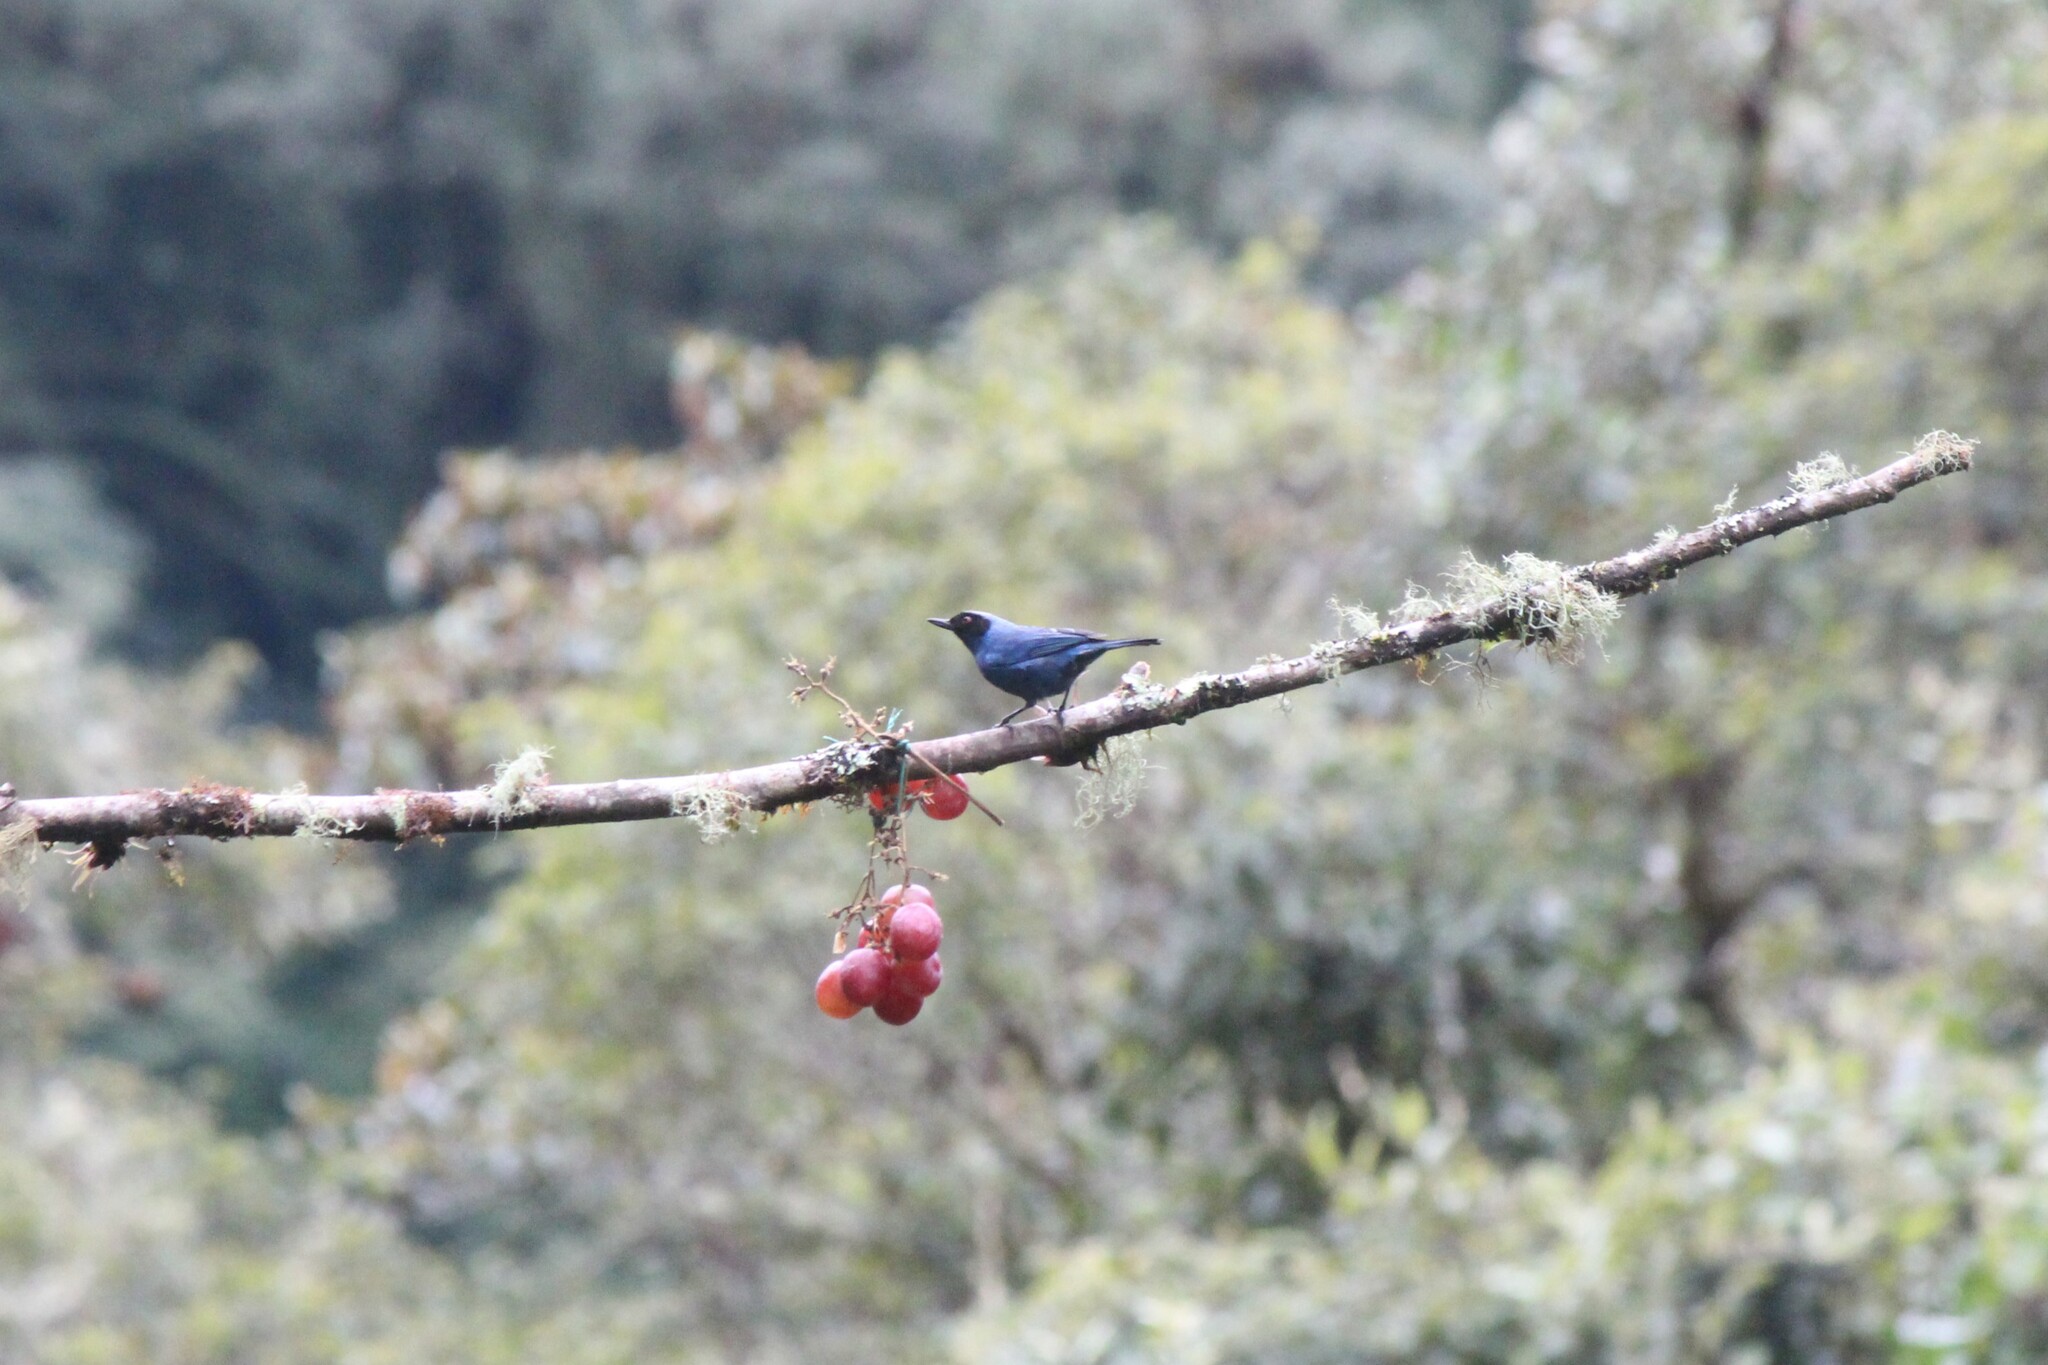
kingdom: Animalia
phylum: Chordata
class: Aves
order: Passeriformes
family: Thraupidae
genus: Diglossa
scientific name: Diglossa cyanea
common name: Masked flowerpiercer
